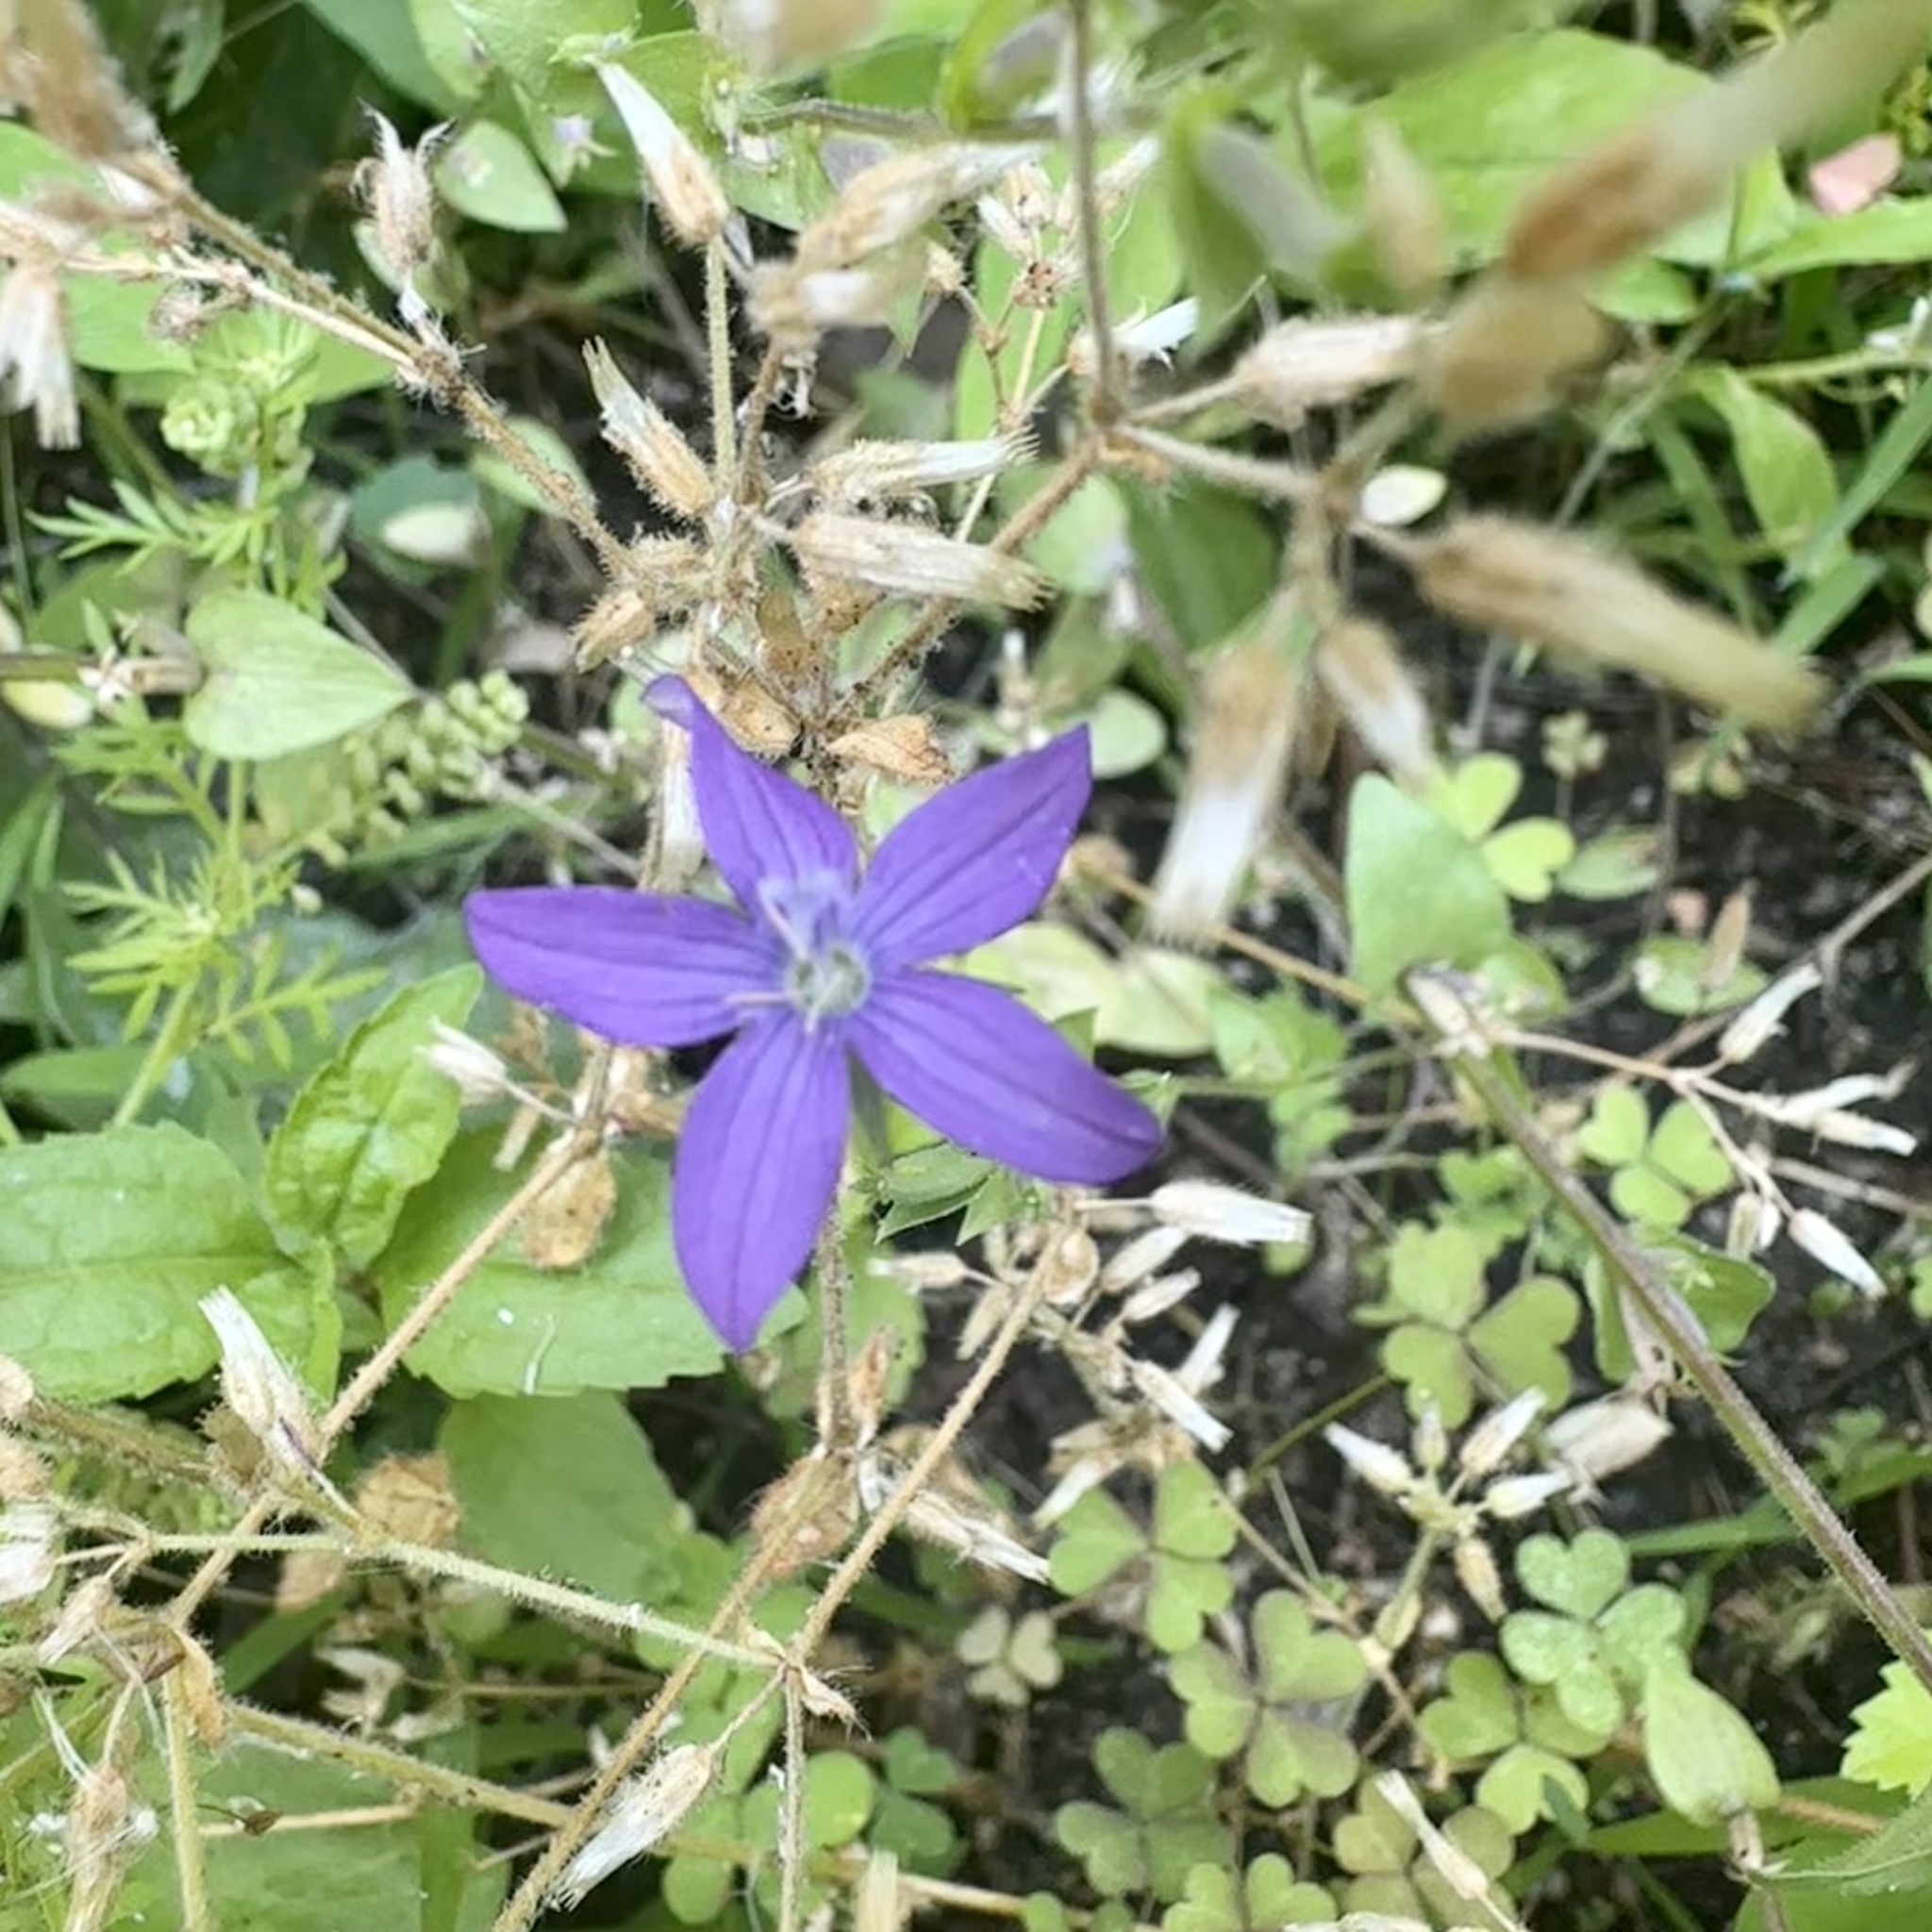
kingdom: Plantae
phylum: Tracheophyta
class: Magnoliopsida
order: Asterales
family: Campanulaceae
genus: Triodanis
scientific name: Triodanis biflora
